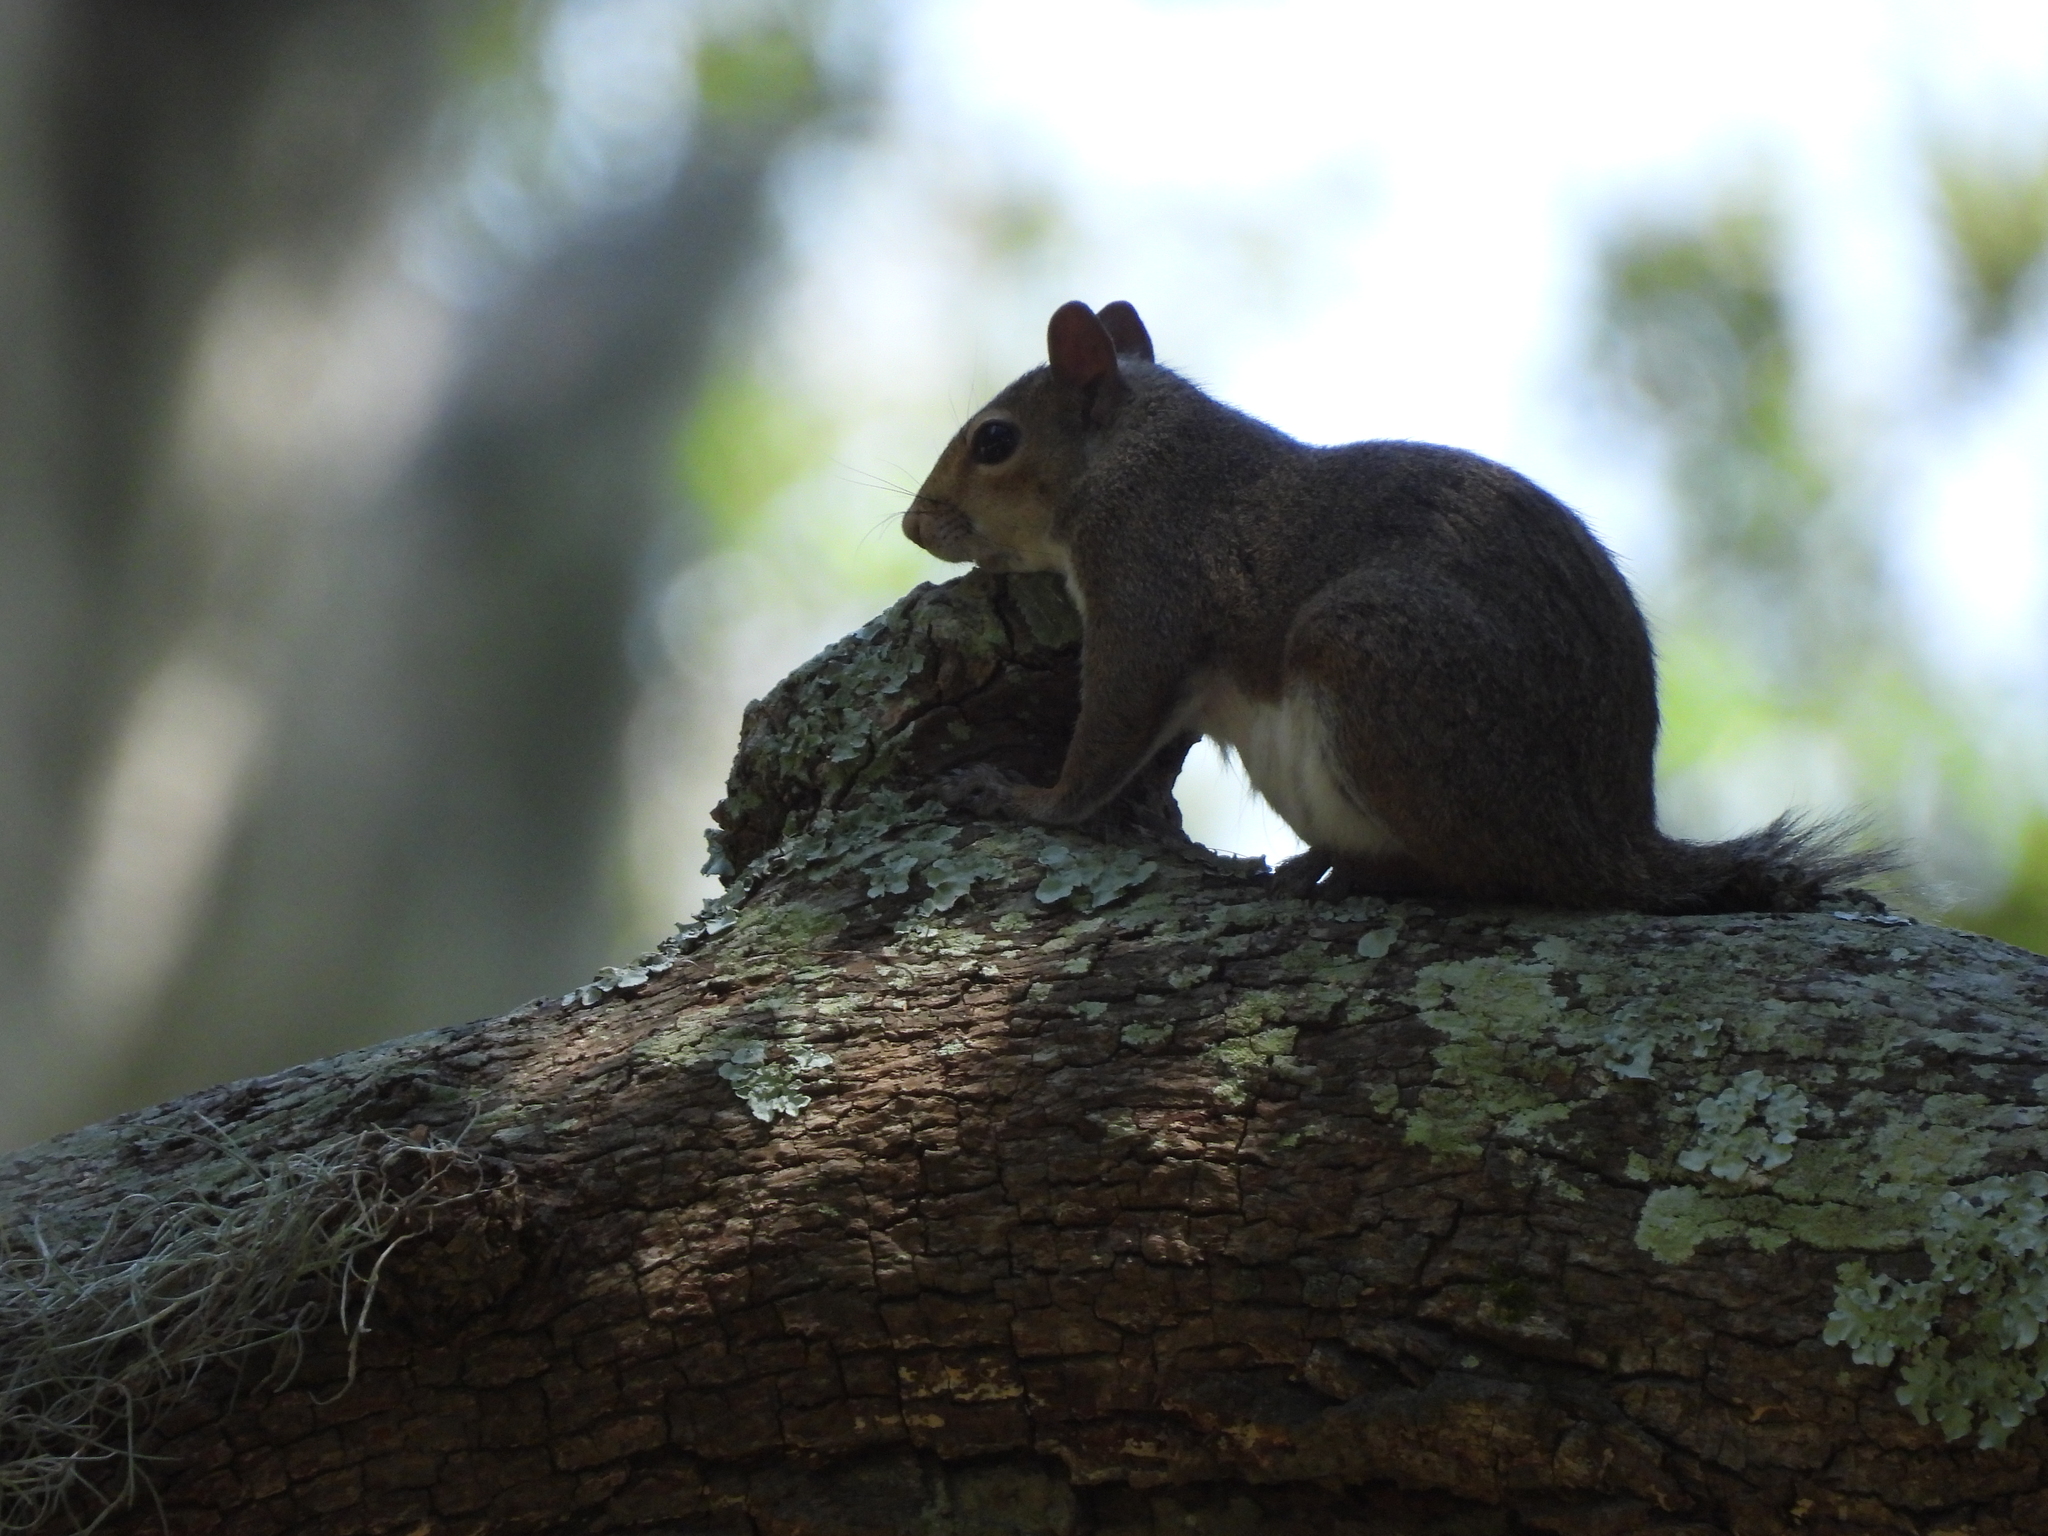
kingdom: Animalia
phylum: Chordata
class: Mammalia
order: Rodentia
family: Sciuridae
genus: Sciurus
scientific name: Sciurus carolinensis
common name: Eastern gray squirrel
